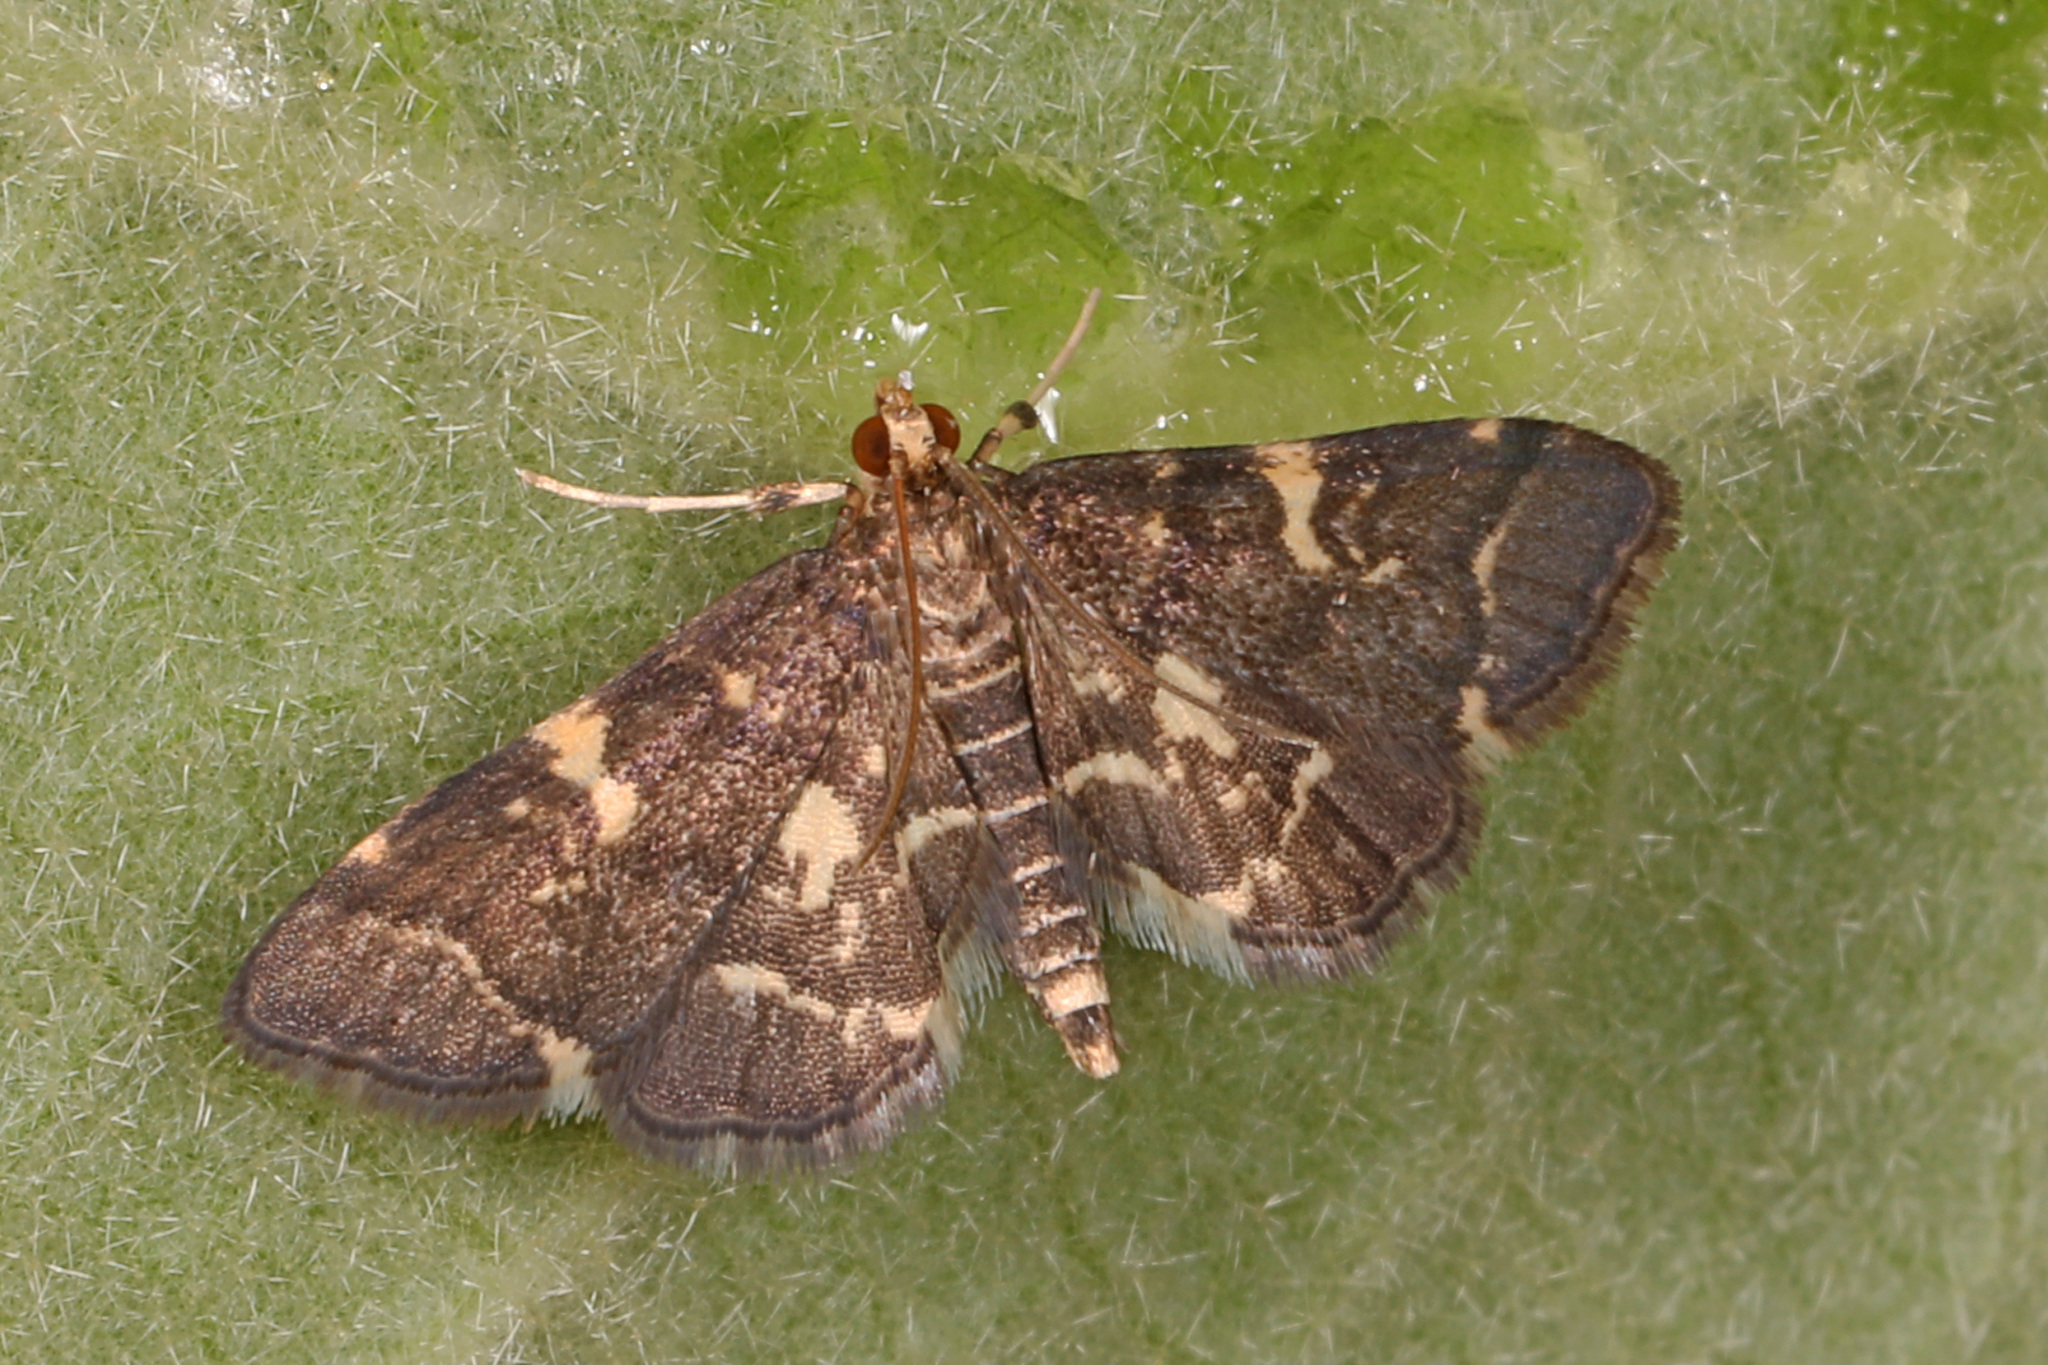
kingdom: Animalia
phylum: Arthropoda
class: Insecta
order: Lepidoptera
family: Crambidae
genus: Anageshna
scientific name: Anageshna primordialis
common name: Yellow-spotted webworm moth
